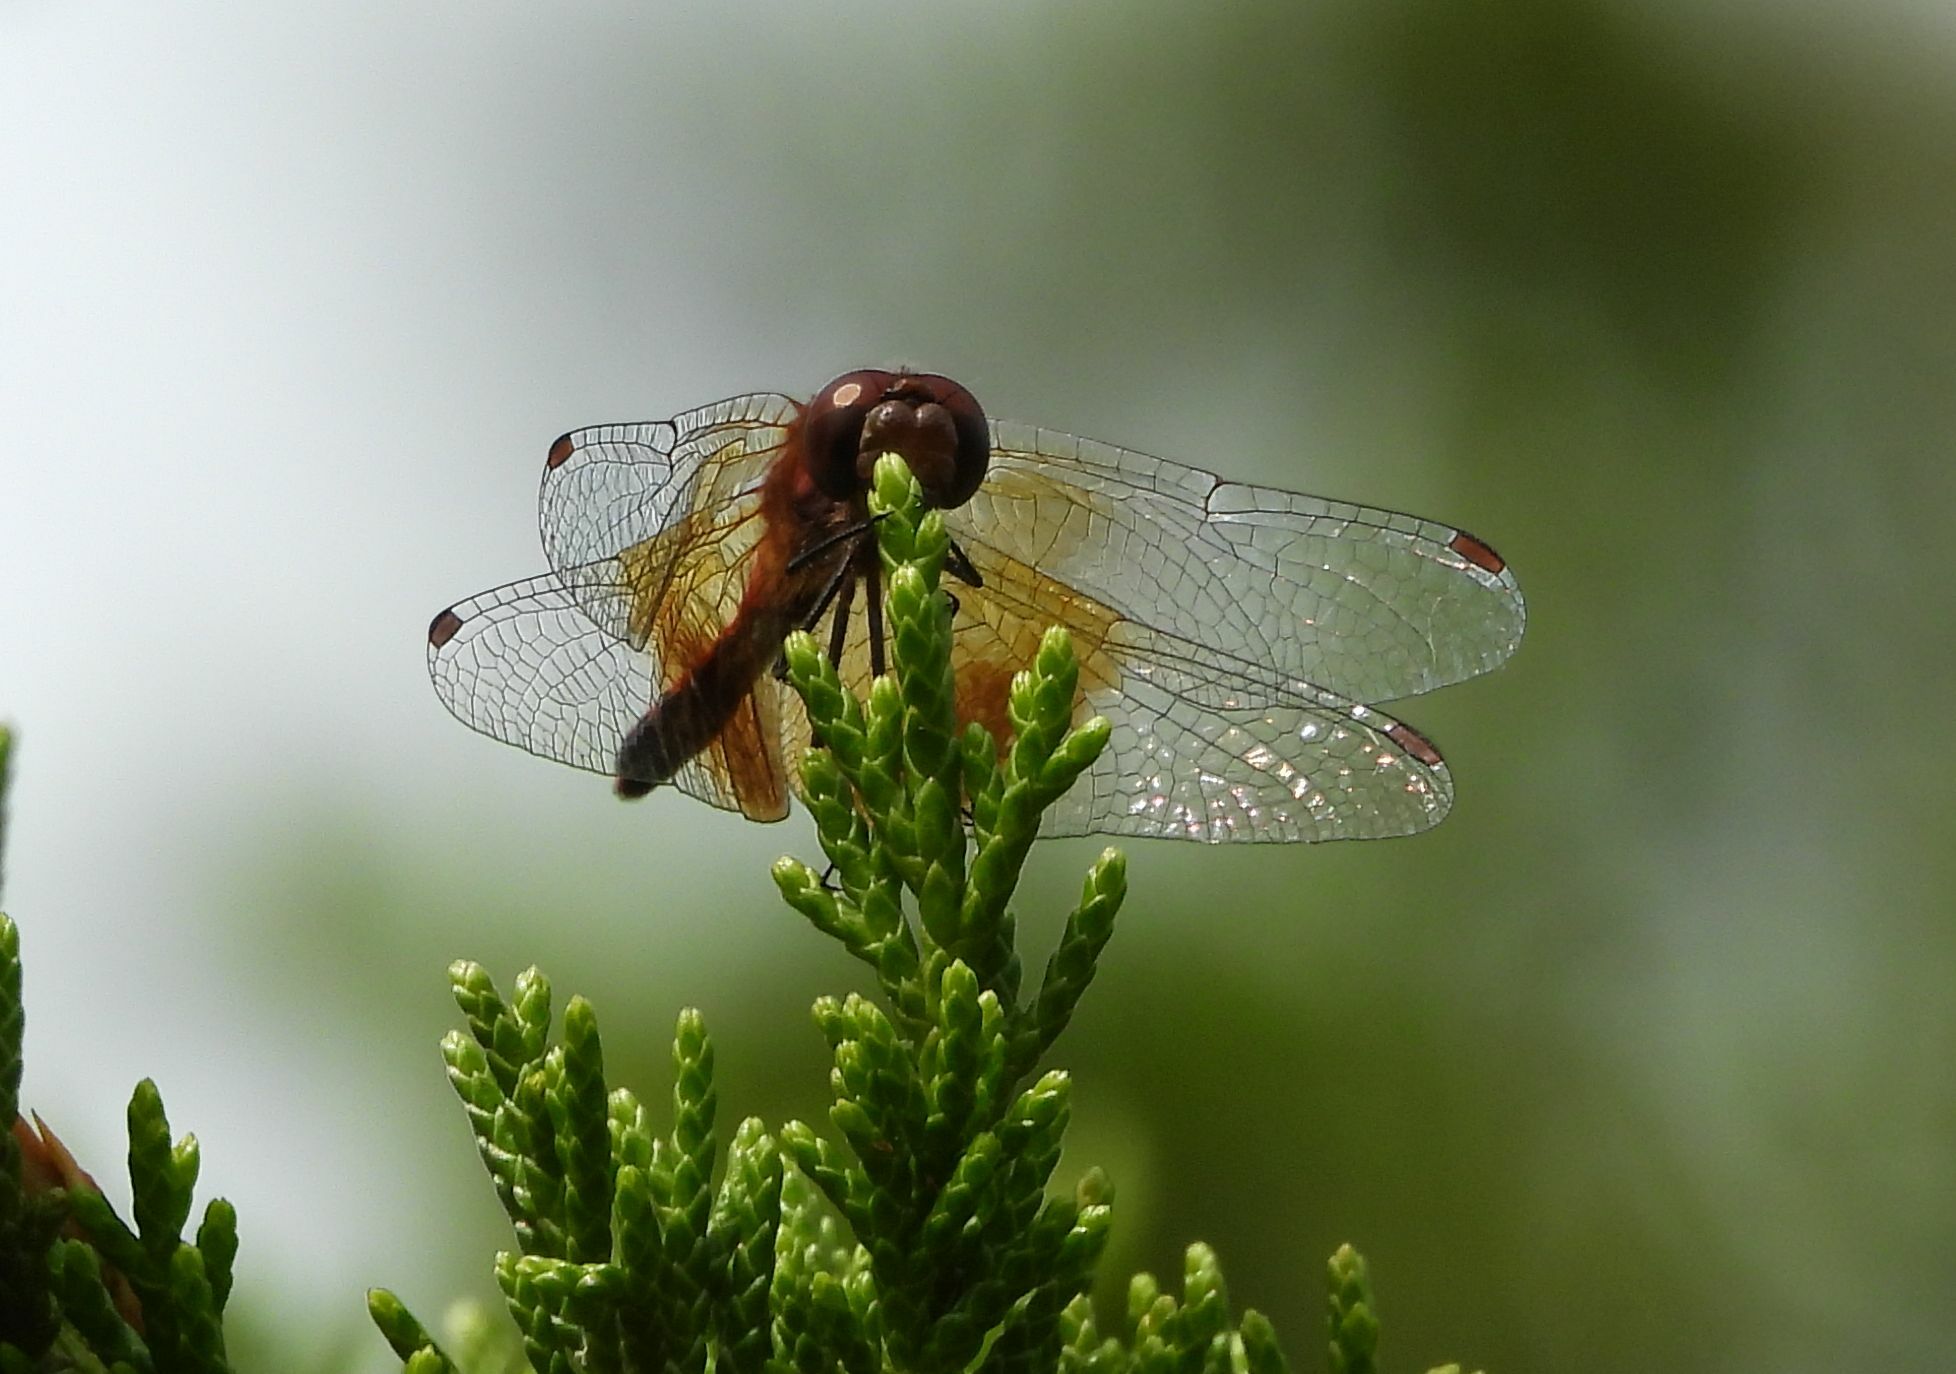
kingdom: Animalia
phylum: Arthropoda
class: Insecta
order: Odonata
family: Libellulidae
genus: Sympetrum
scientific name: Sympetrum semicinctum
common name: Band-winged meadowhawk
